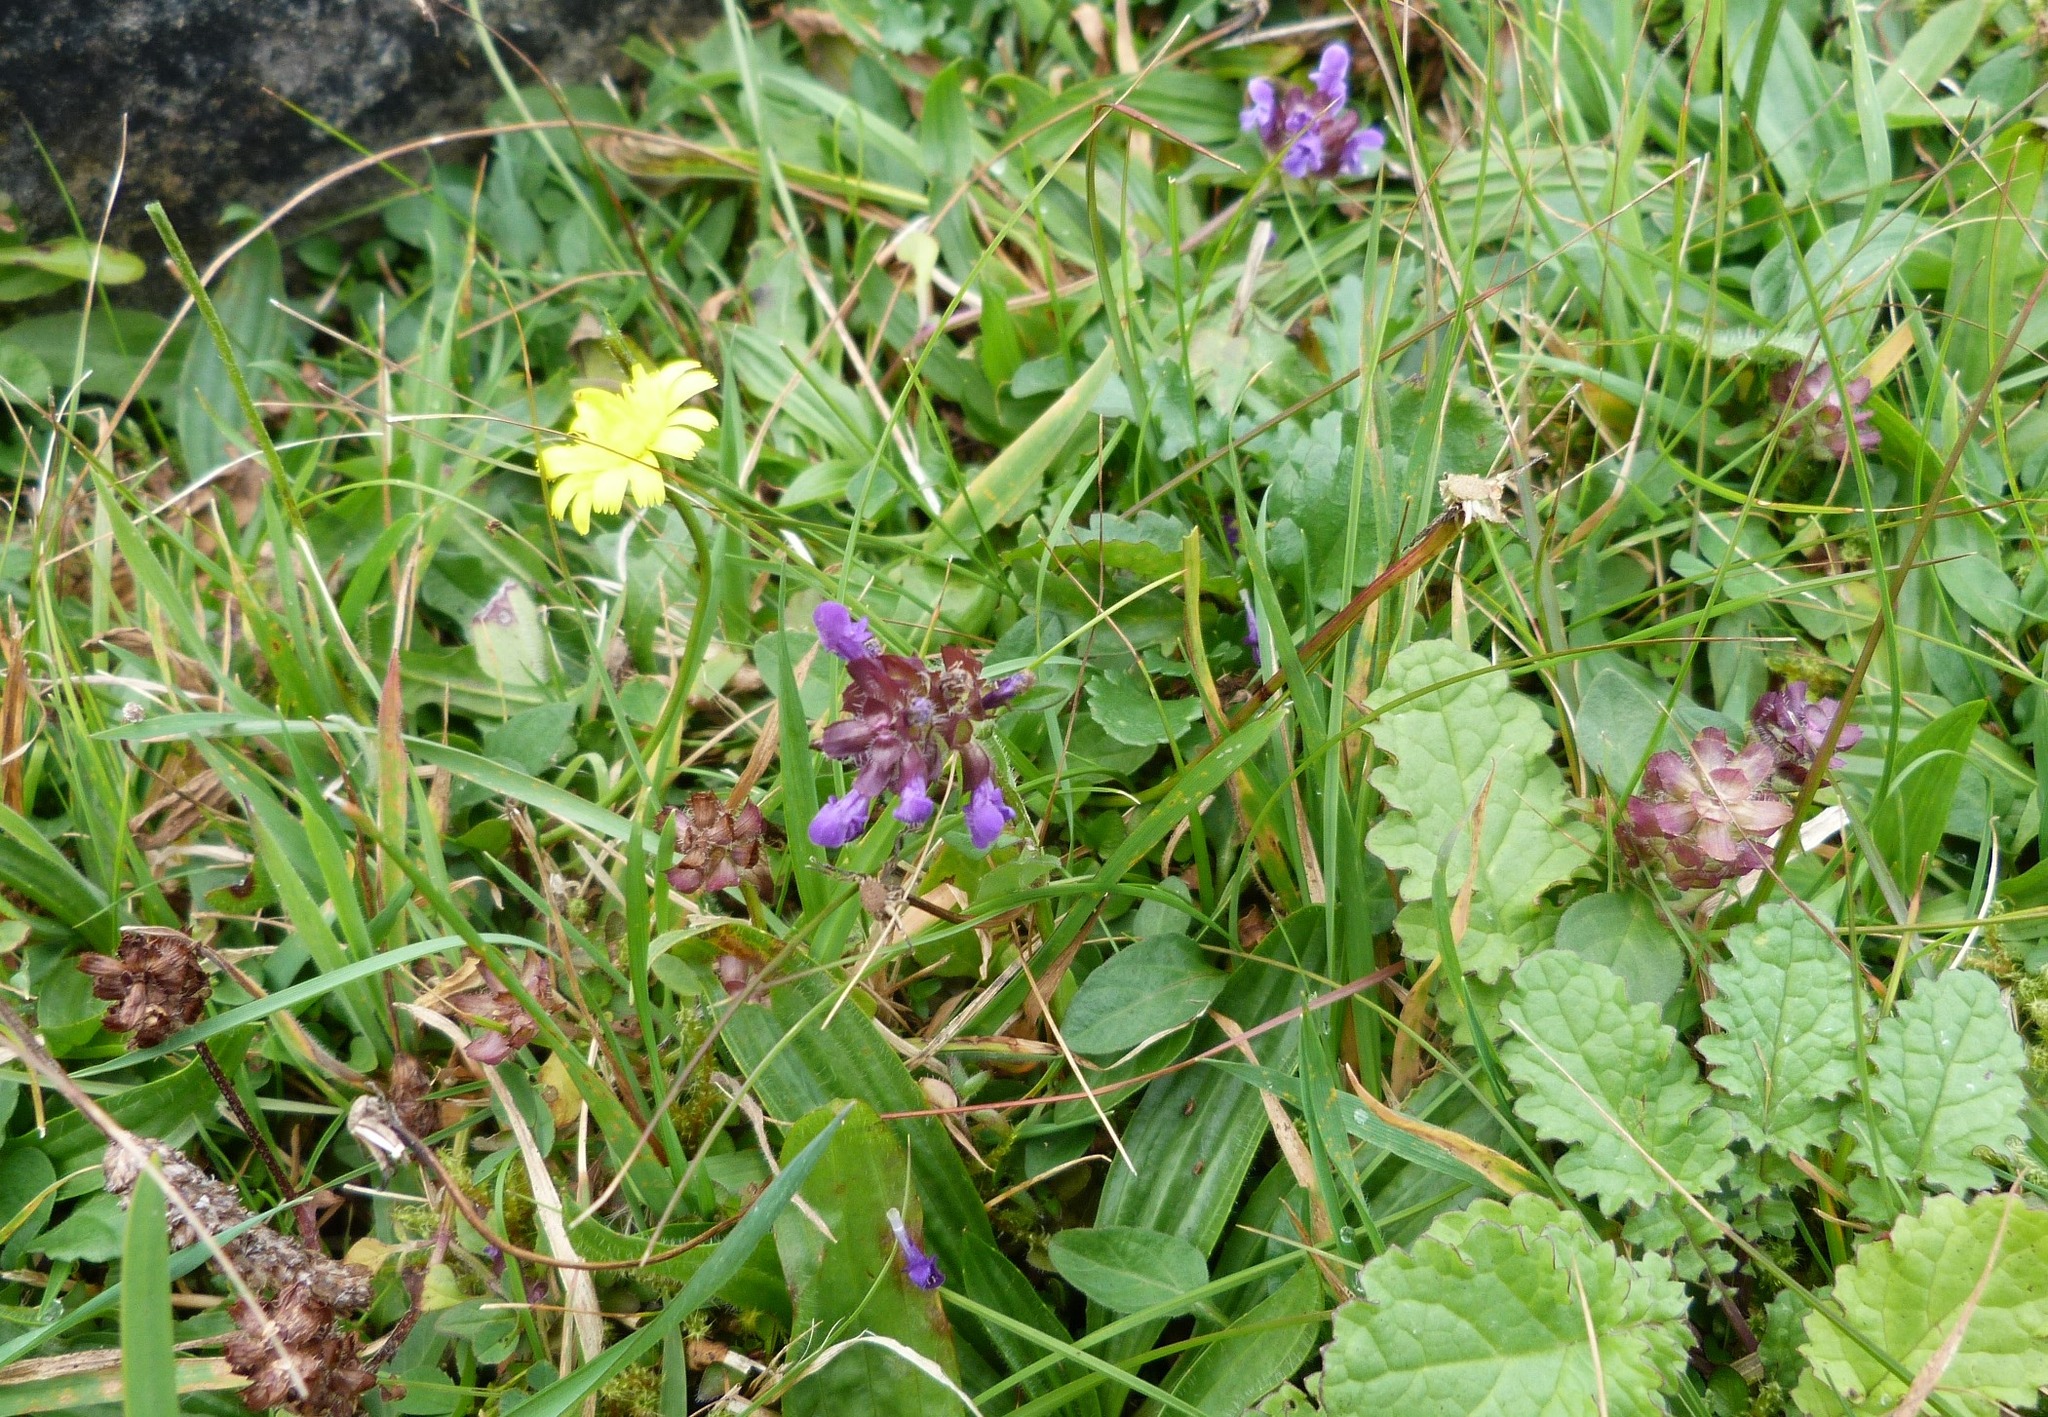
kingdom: Plantae
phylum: Tracheophyta
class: Magnoliopsida
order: Lamiales
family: Lamiaceae
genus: Prunella
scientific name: Prunella vulgaris
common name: Heal-all
